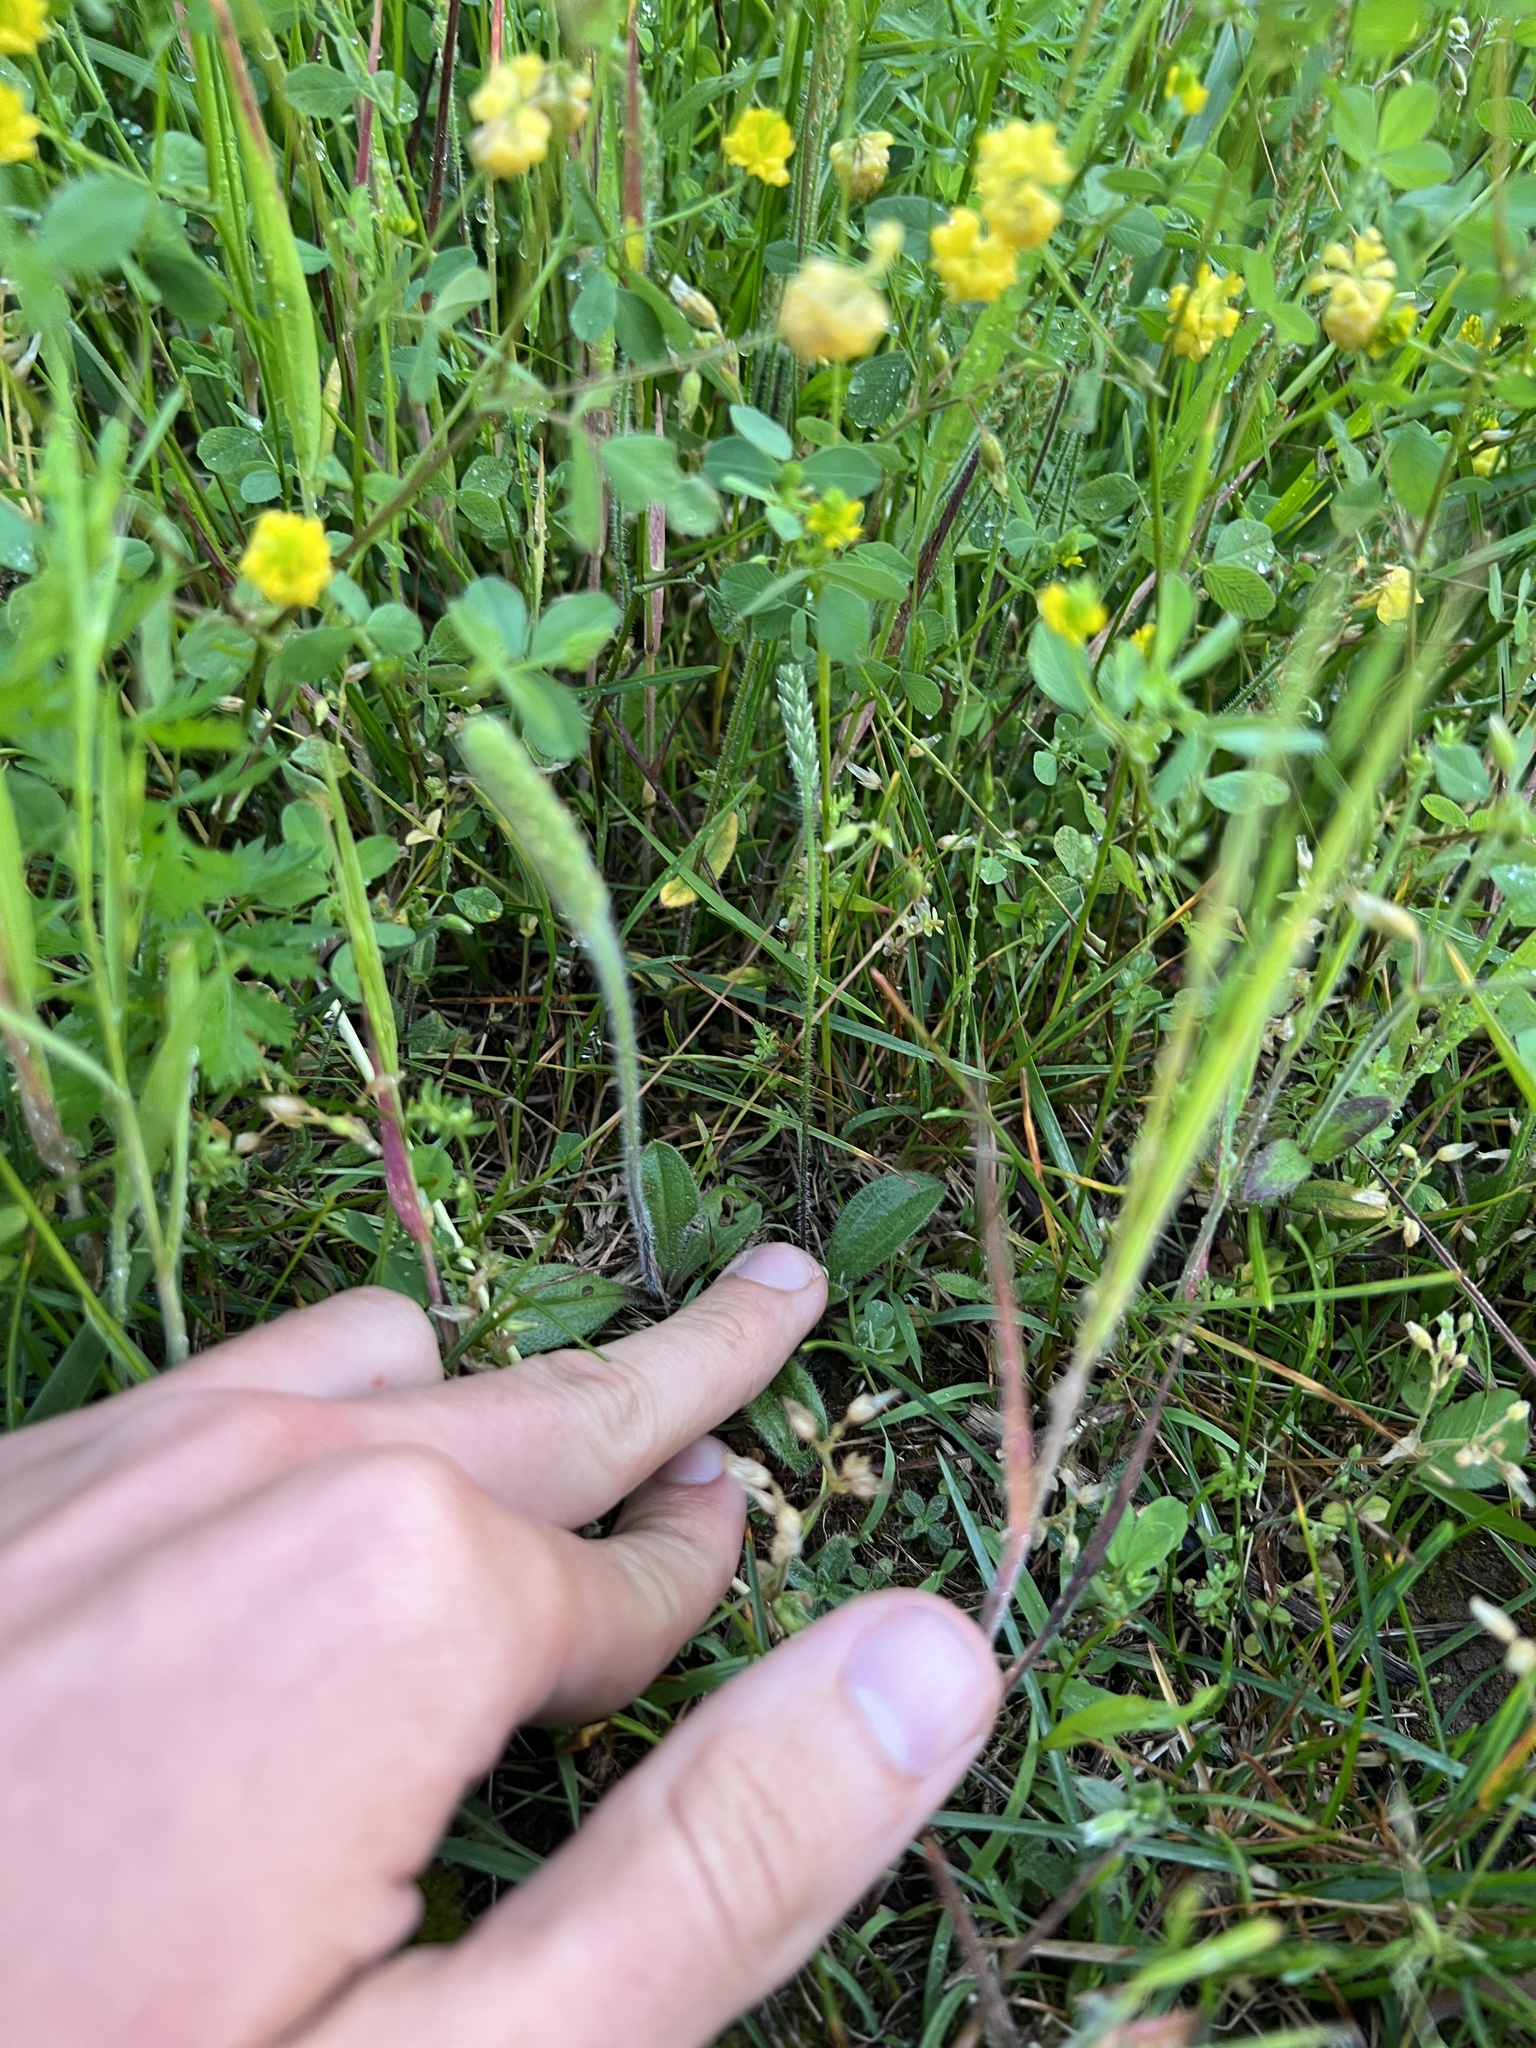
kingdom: Plantae
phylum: Tracheophyta
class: Magnoliopsida
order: Lamiales
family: Plantaginaceae
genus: Plantago
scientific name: Plantago virginica
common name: Hoary plantain
